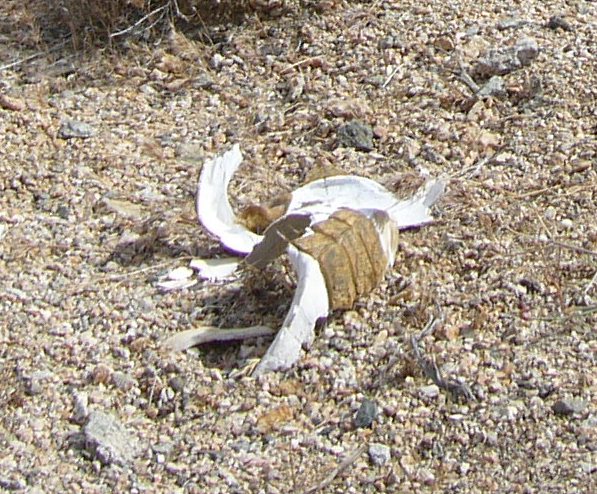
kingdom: Animalia
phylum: Chordata
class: Testudines
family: Testudinidae
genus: Gopherus
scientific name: Gopherus agassizii
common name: Mojave desert tortoise
